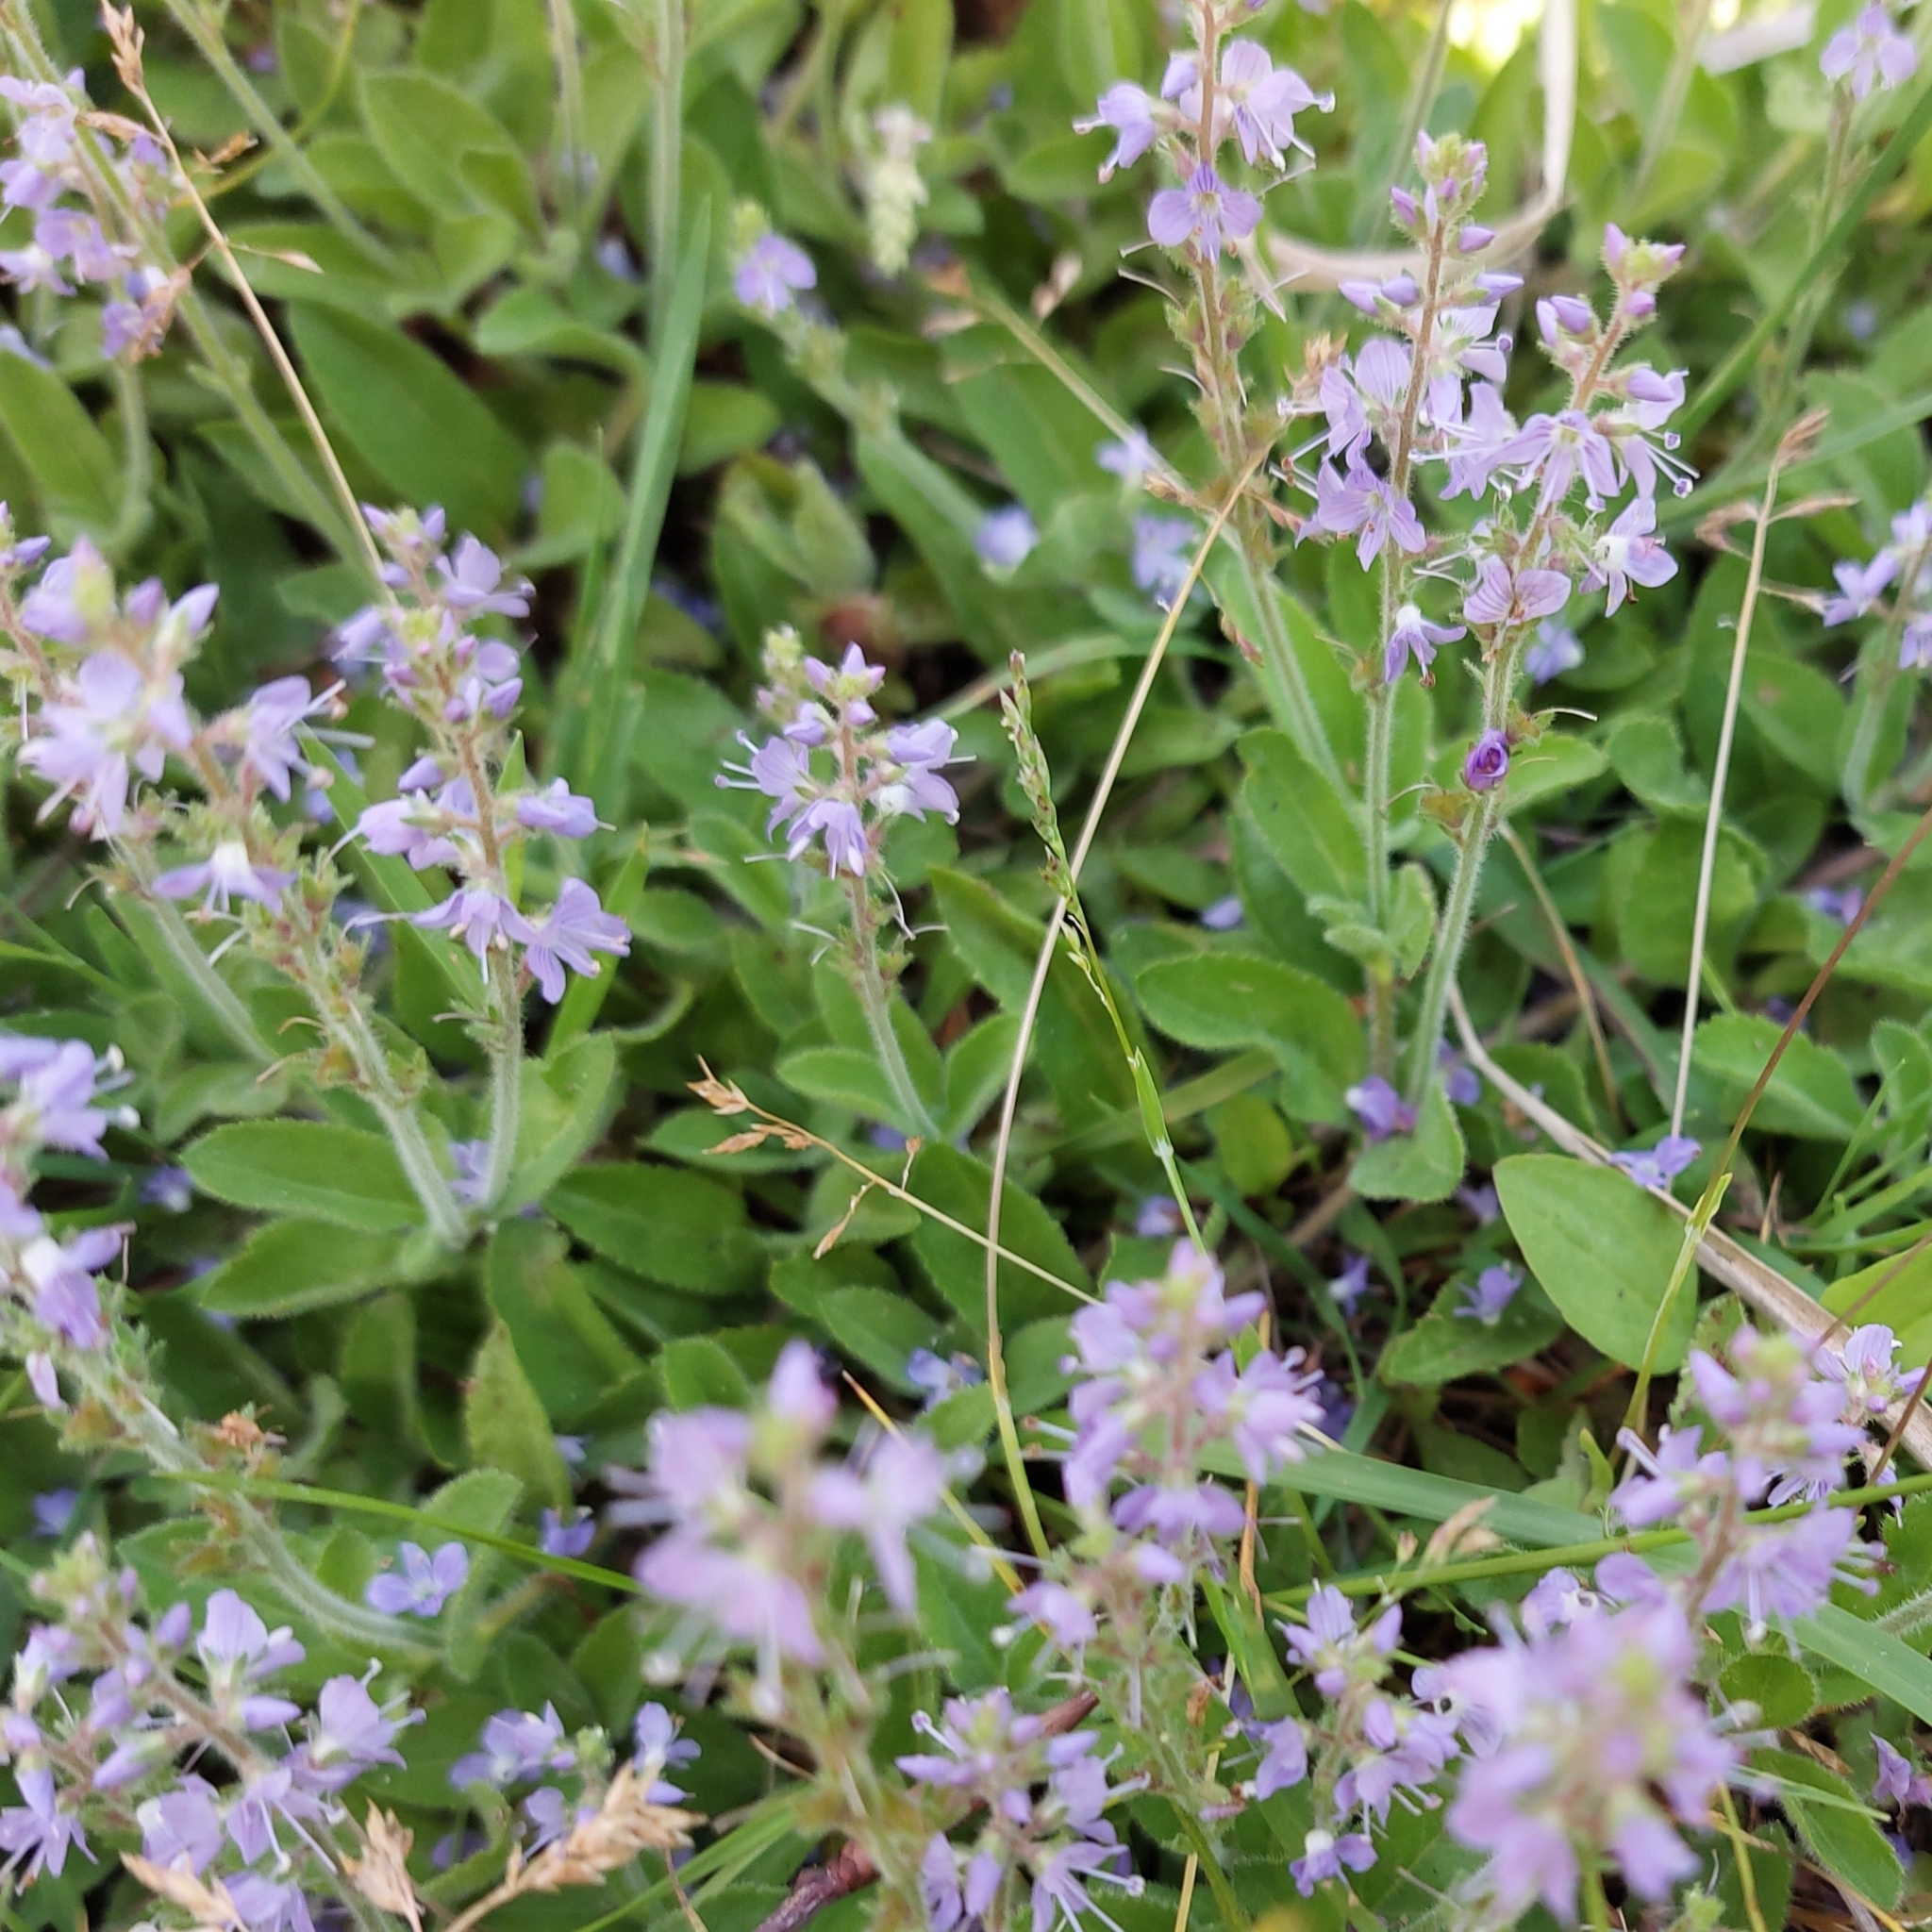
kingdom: Plantae
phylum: Tracheophyta
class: Magnoliopsida
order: Lamiales
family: Plantaginaceae
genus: Veronica
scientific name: Veronica officinalis
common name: Common speedwell
